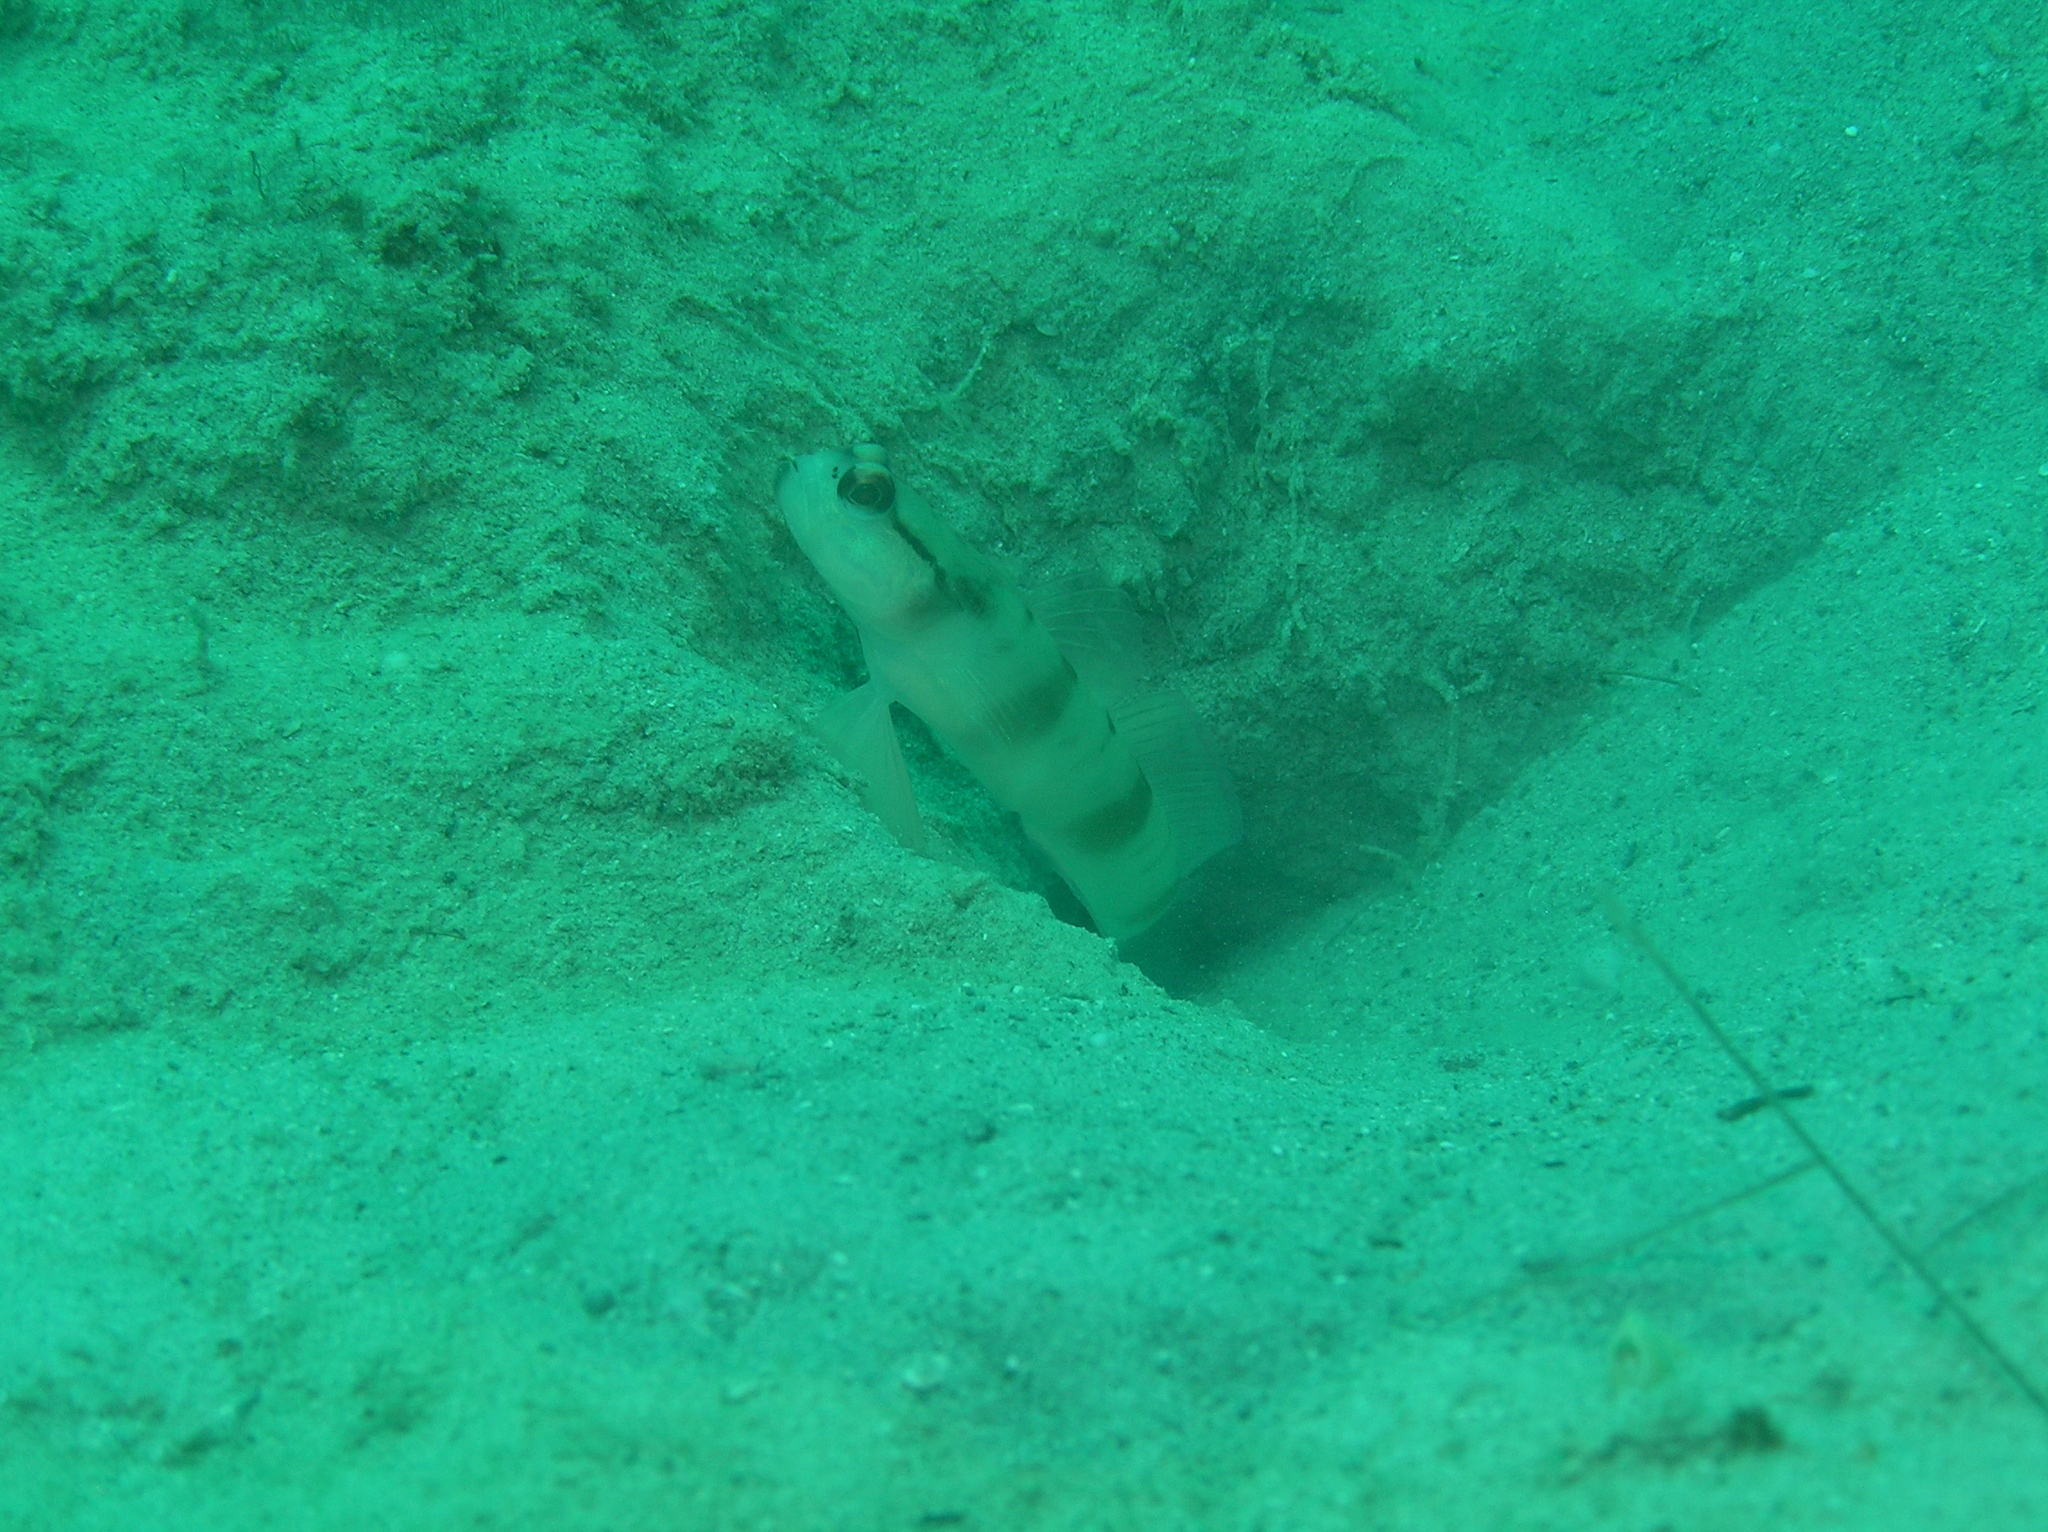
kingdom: Animalia
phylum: Chordata
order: Perciformes
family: Gobiidae
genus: Amblyeleotris
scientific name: Amblyeleotris gymnocephala
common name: Masked shrimpgoby
